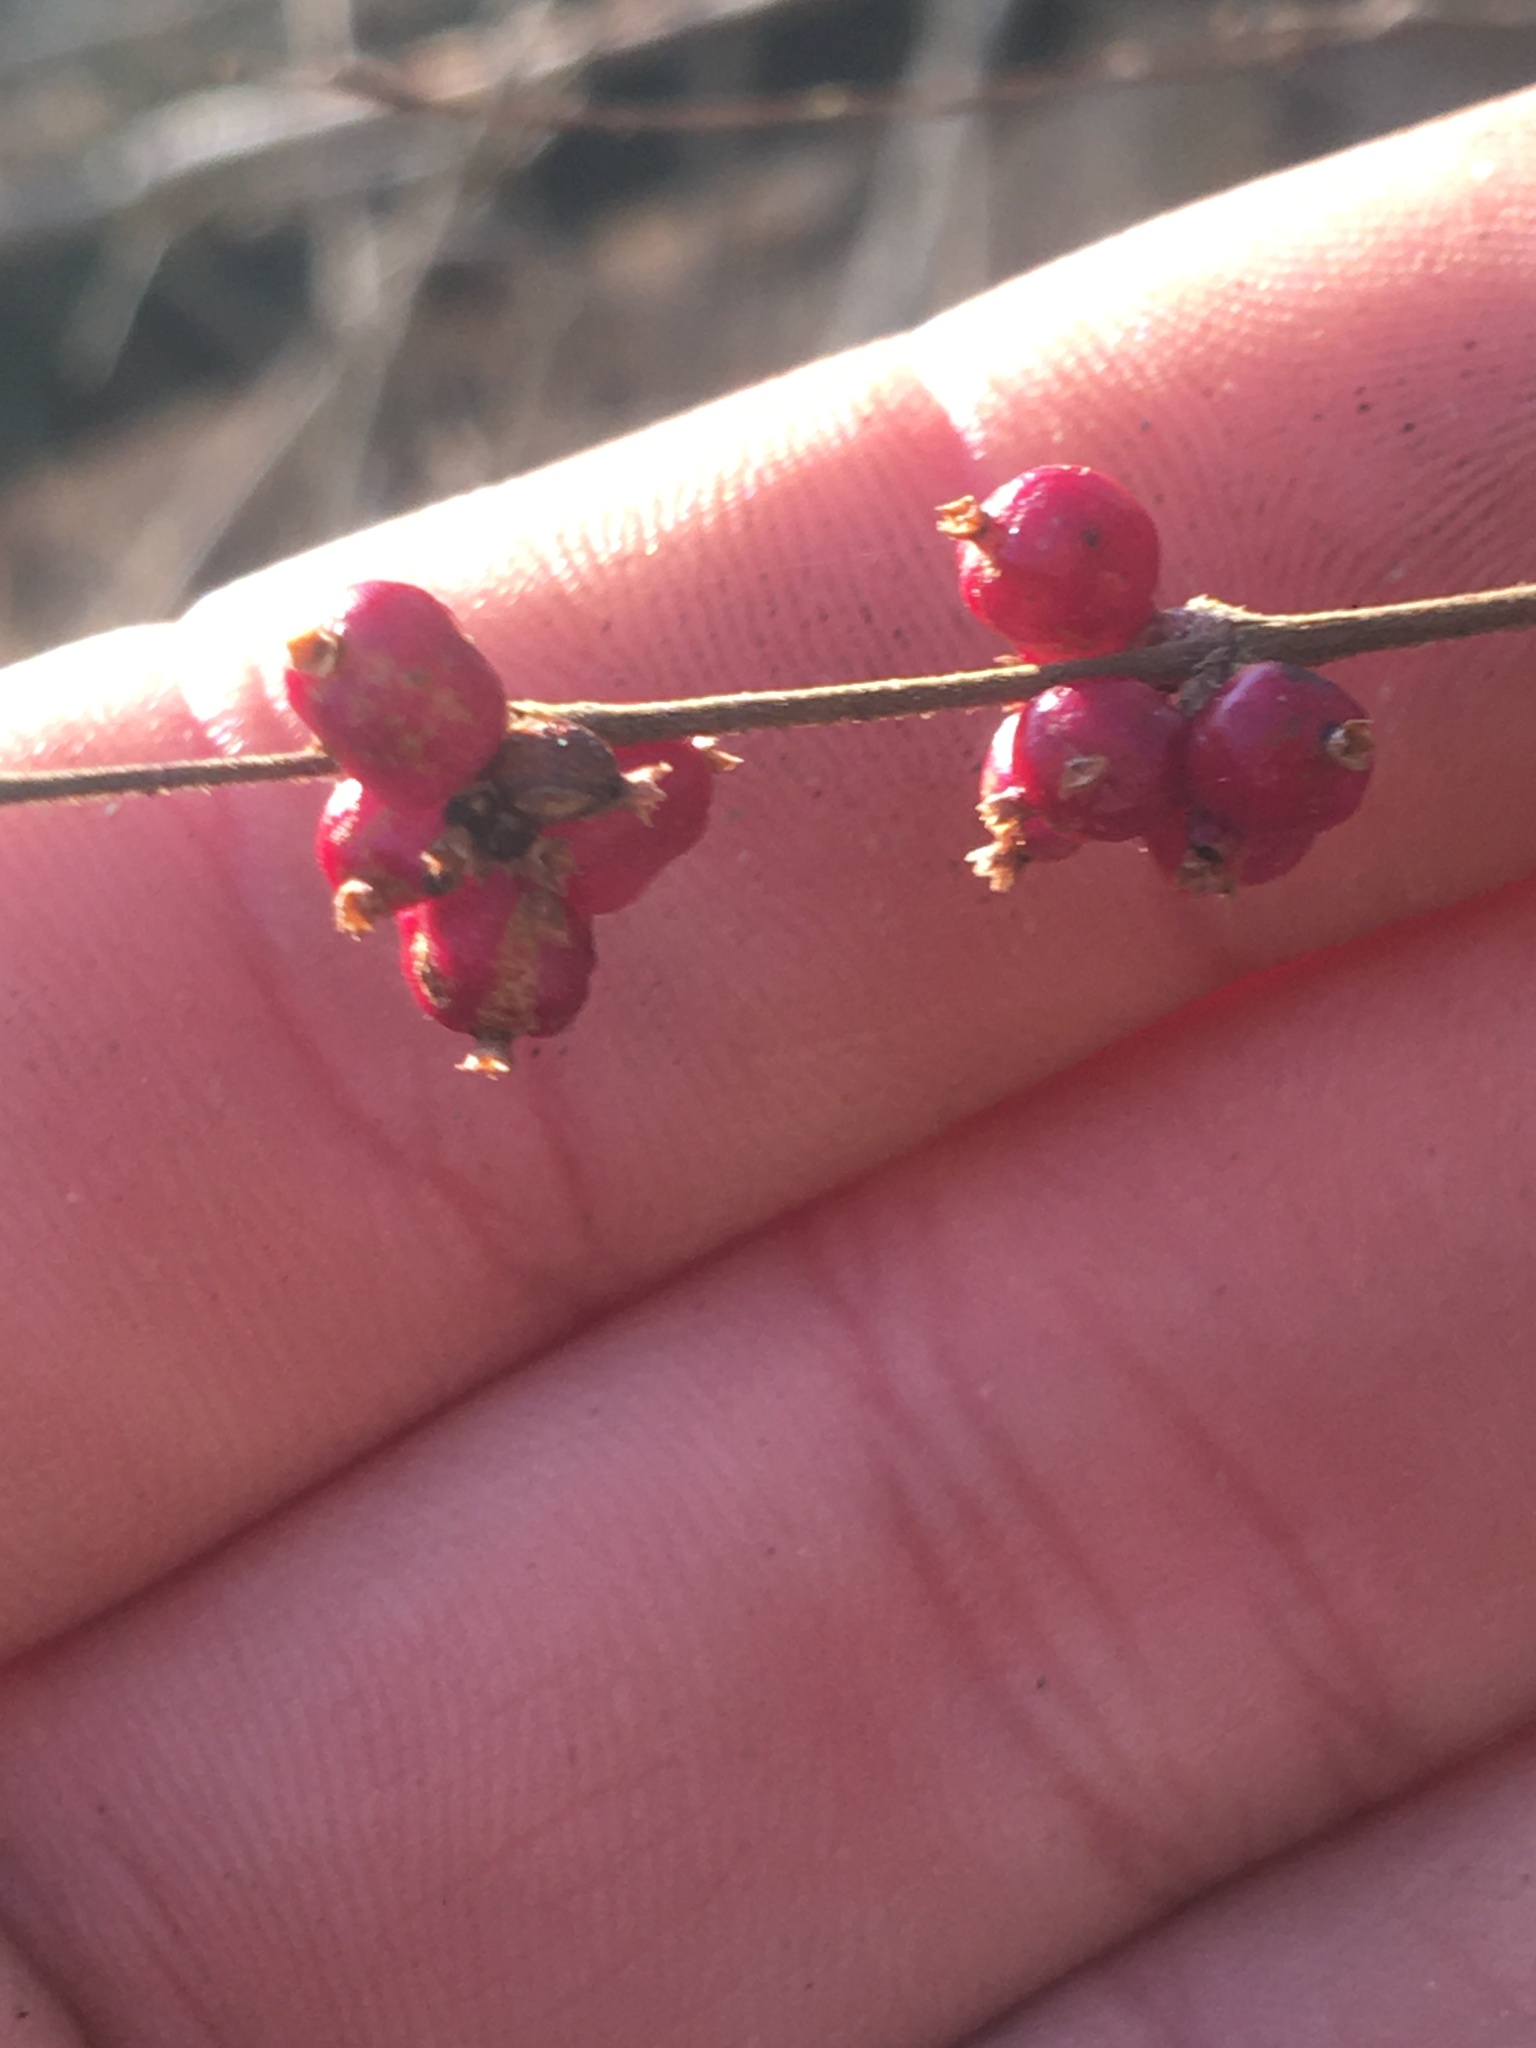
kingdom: Plantae
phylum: Tracheophyta
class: Magnoliopsida
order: Dipsacales
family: Caprifoliaceae
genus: Symphoricarpos
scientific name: Symphoricarpos orbiculatus
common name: Coralberry
